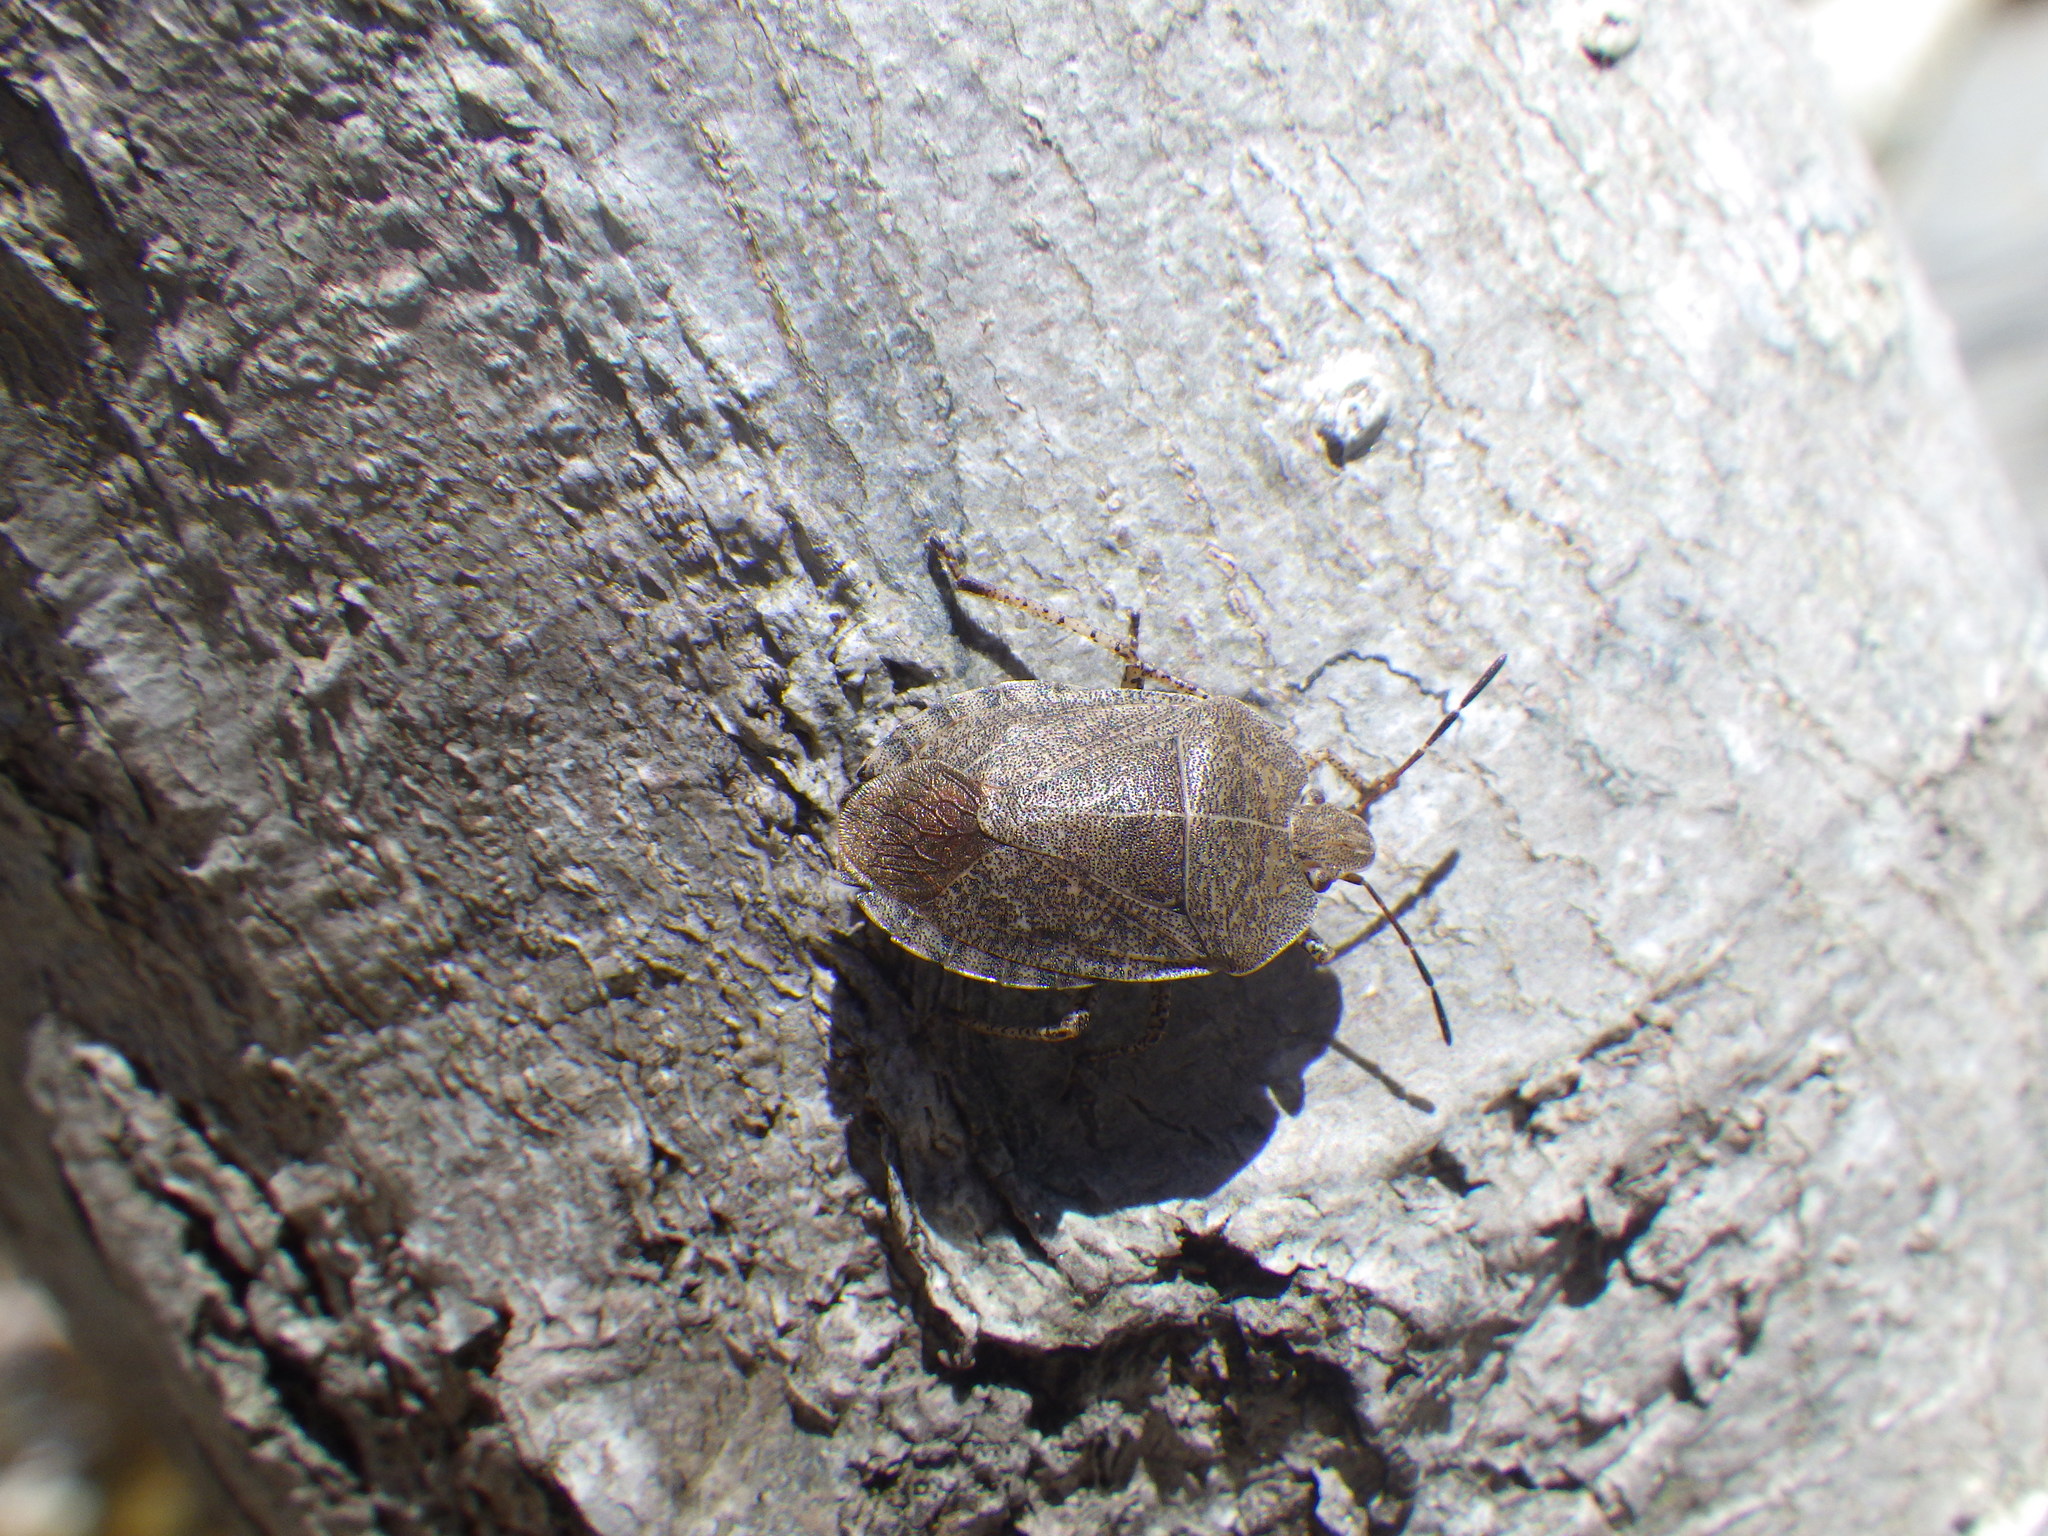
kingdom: Animalia
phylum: Arthropoda
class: Insecta
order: Hemiptera
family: Pentatomidae
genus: Menecles
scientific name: Menecles insertus
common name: Elf shoe stink bug
